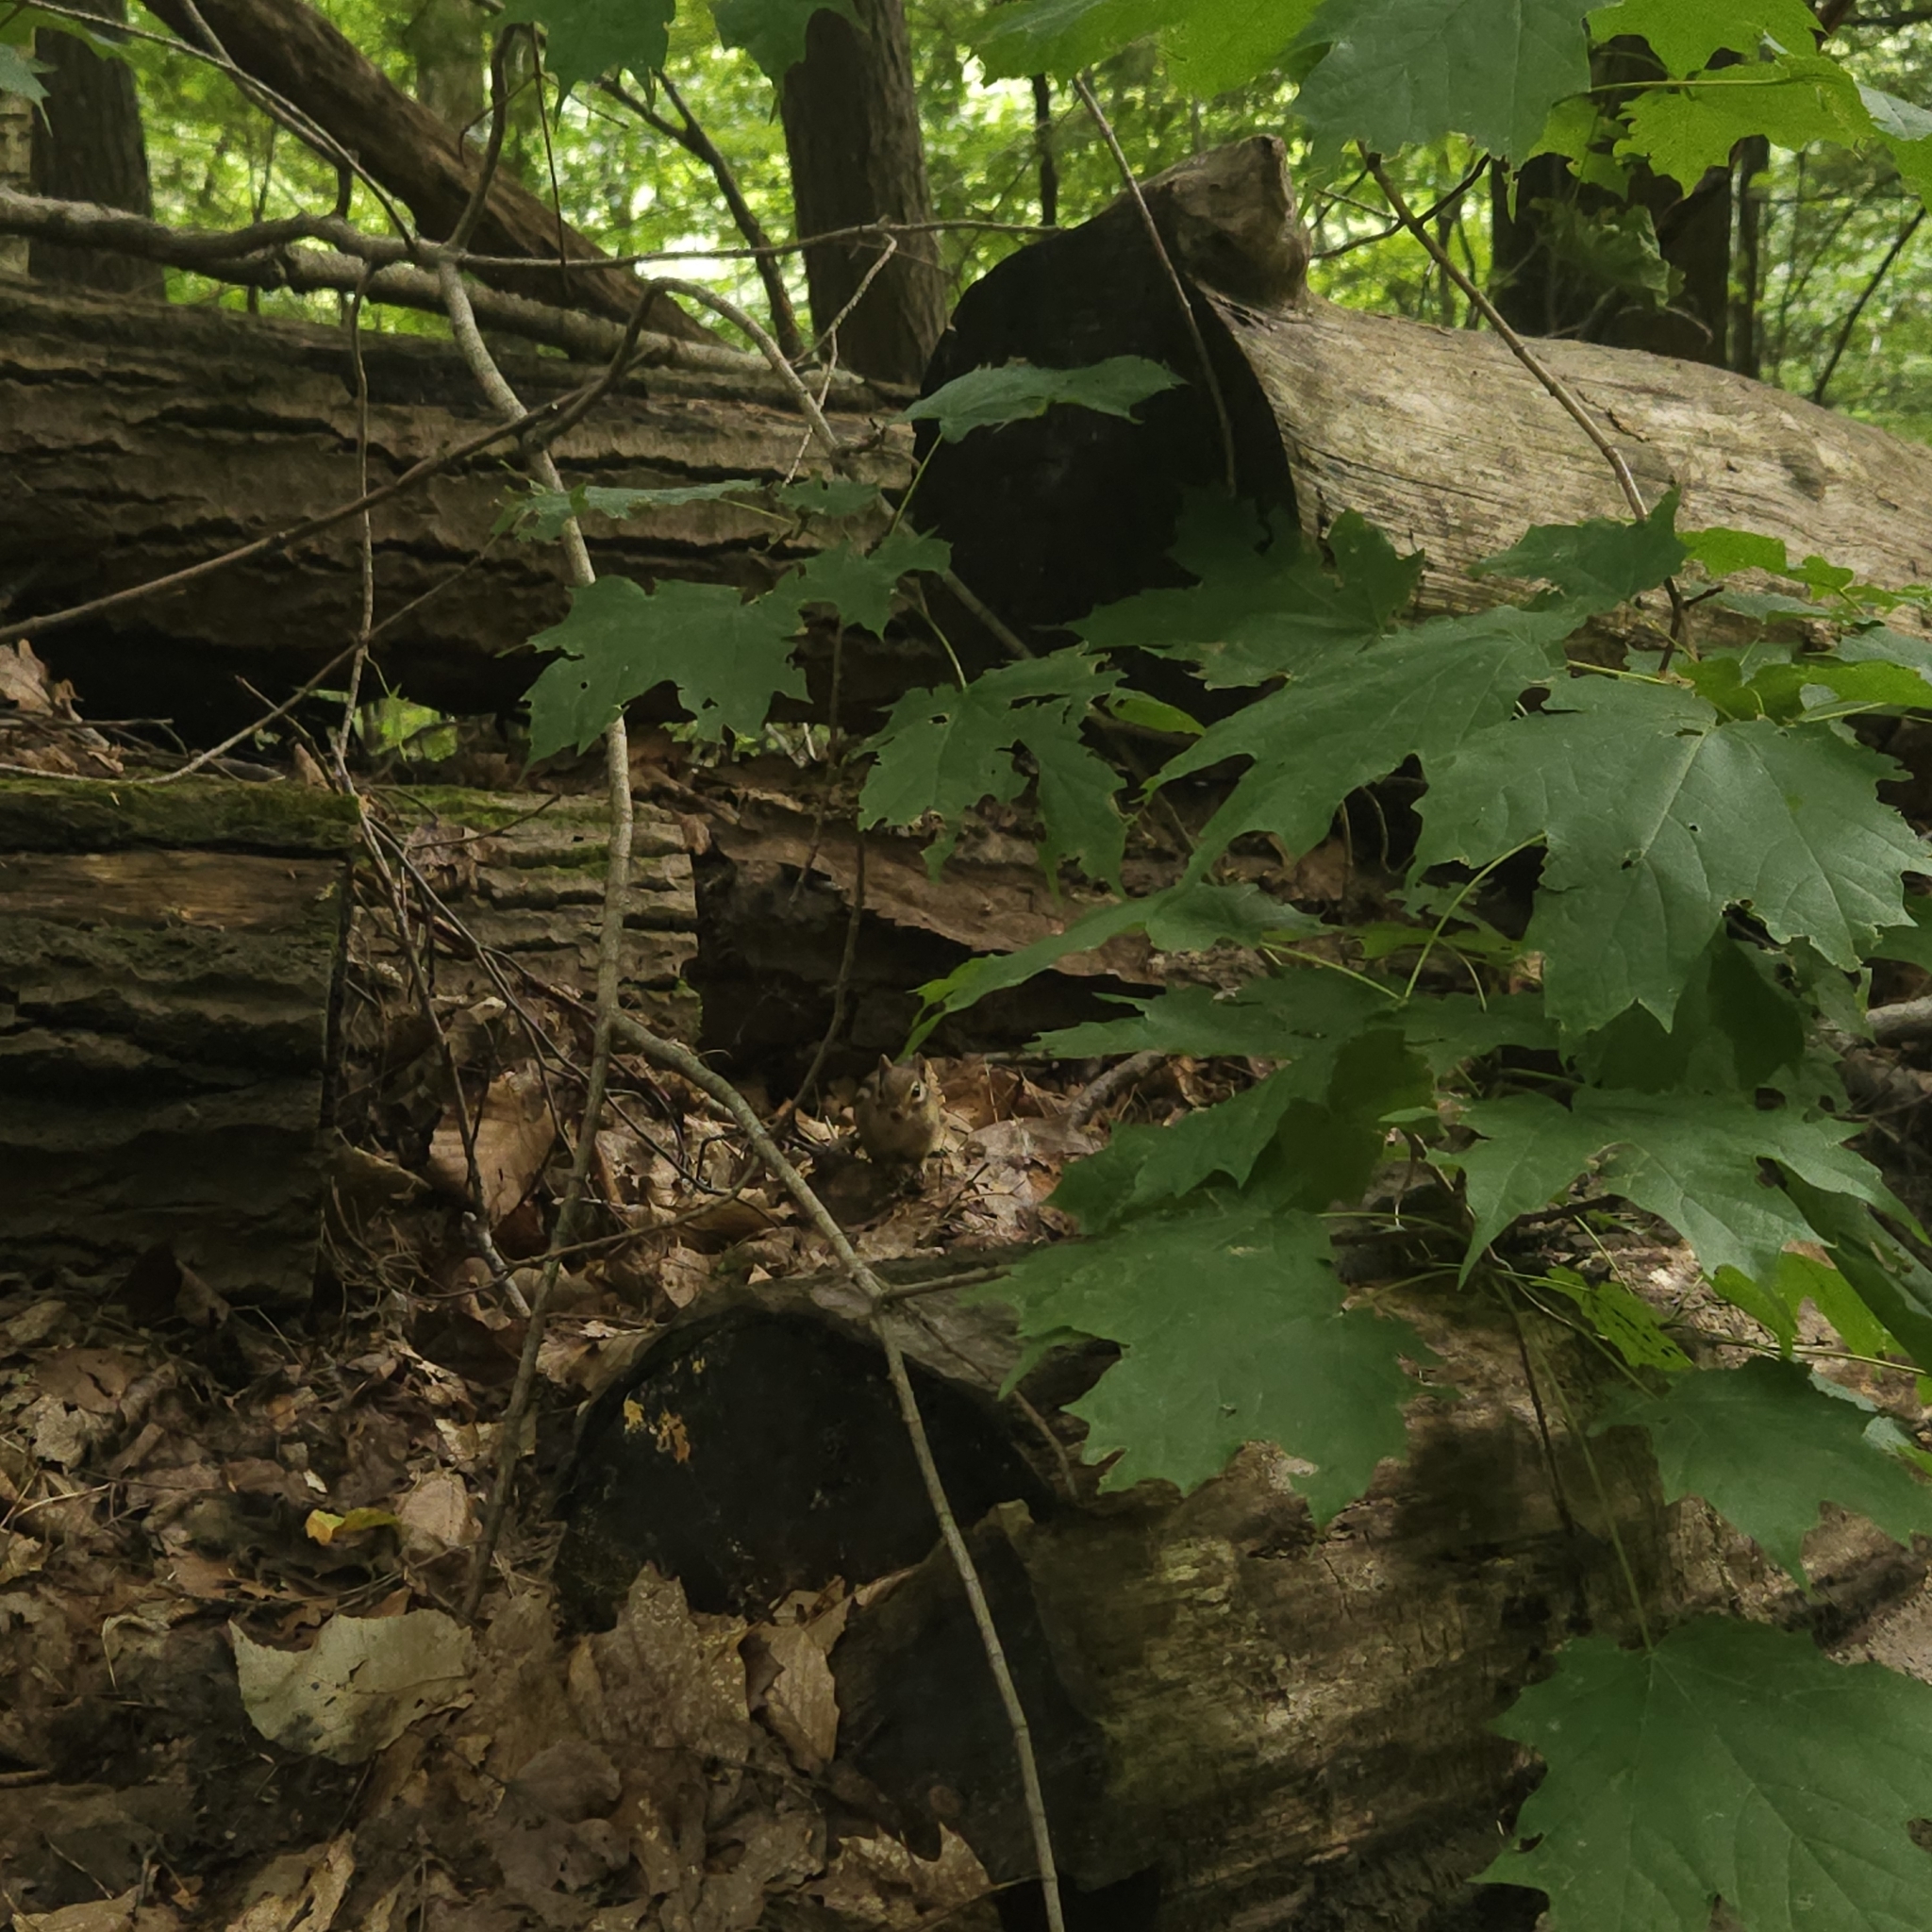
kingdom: Animalia
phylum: Chordata
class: Mammalia
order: Rodentia
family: Sciuridae
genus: Tamias
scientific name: Tamias striatus
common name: Eastern chipmunk
